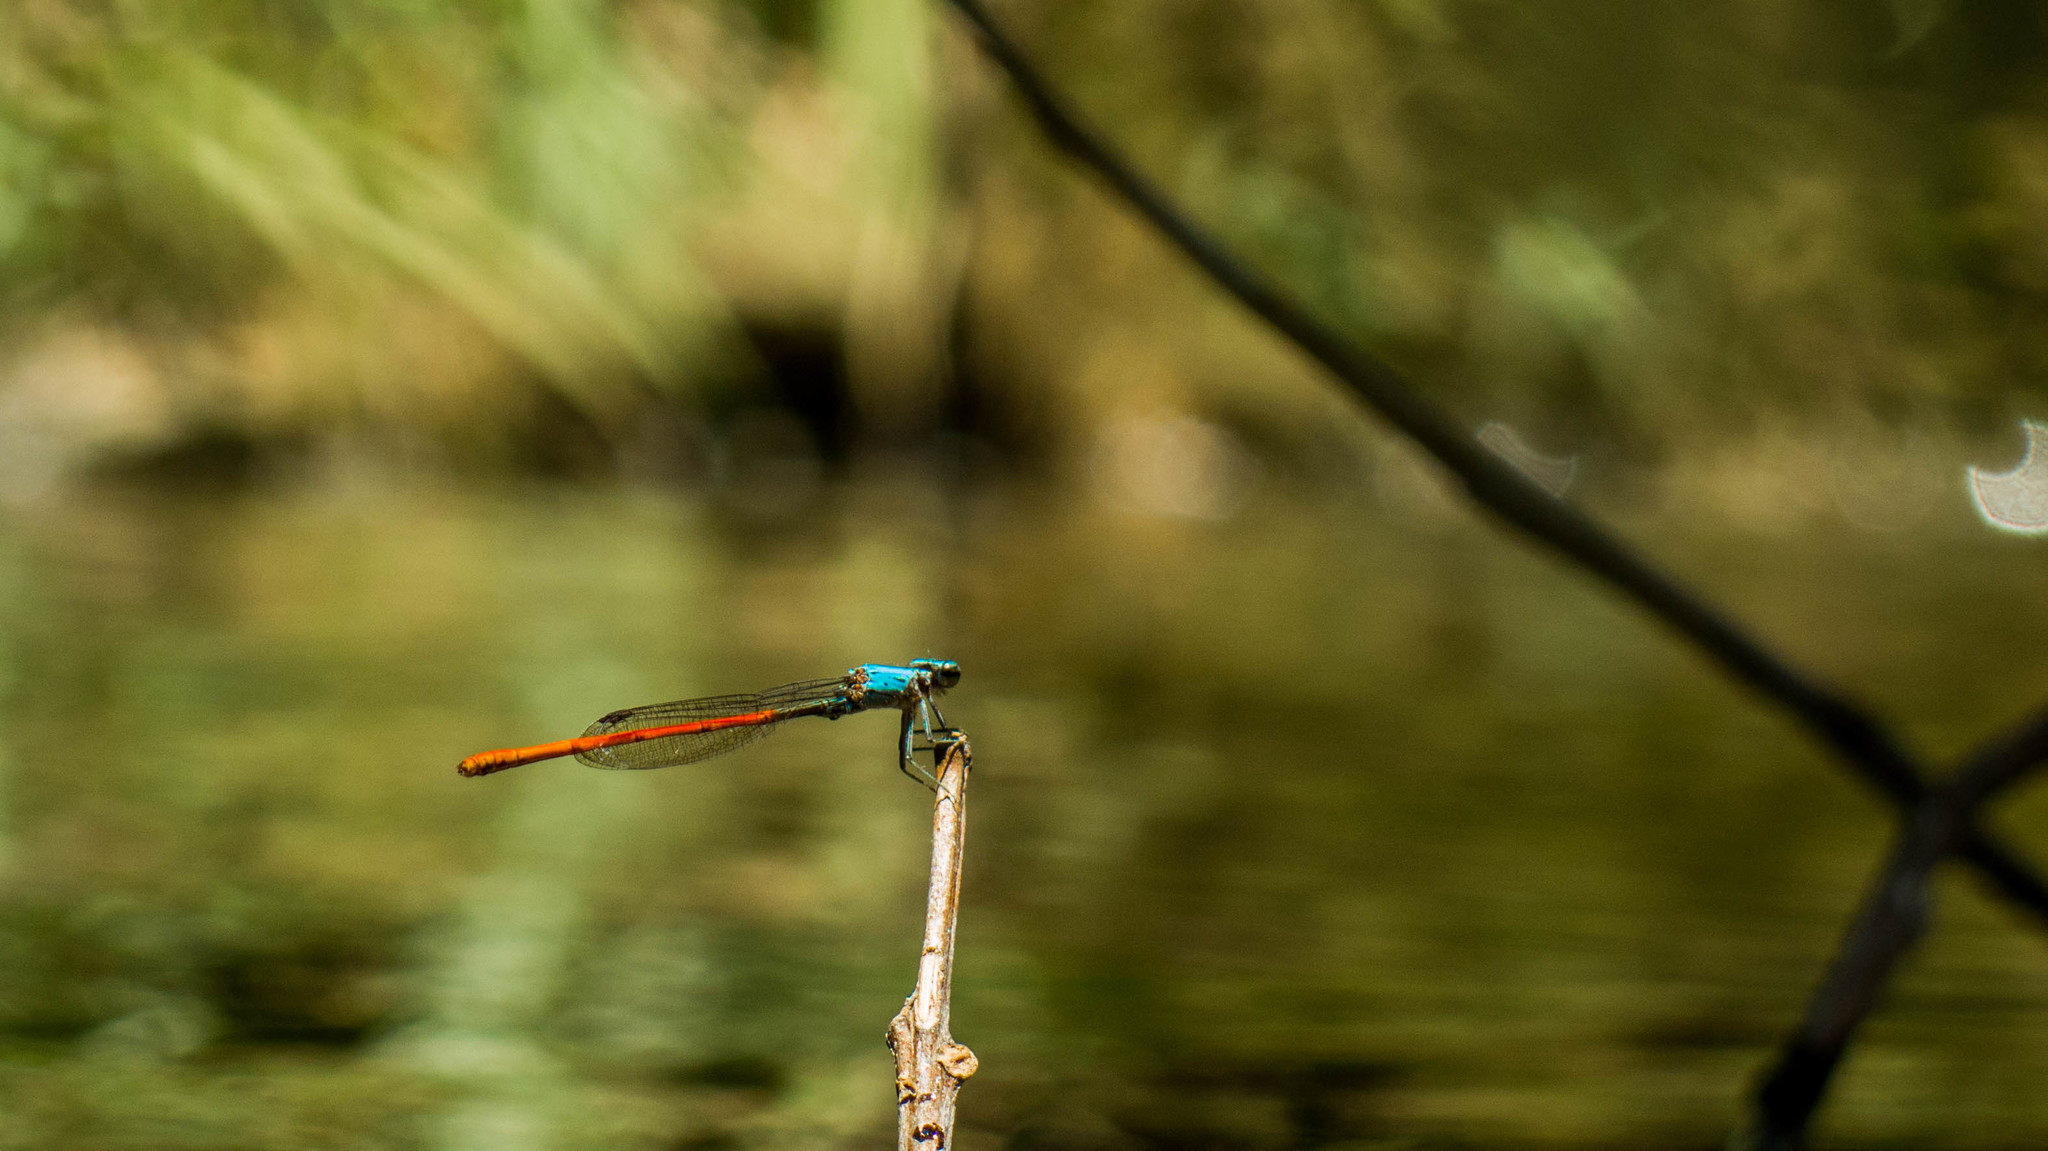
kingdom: Animalia
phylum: Arthropoda
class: Insecta
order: Odonata
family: Coenagrionidae
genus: Neoneura
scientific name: Neoneura sylvatica
